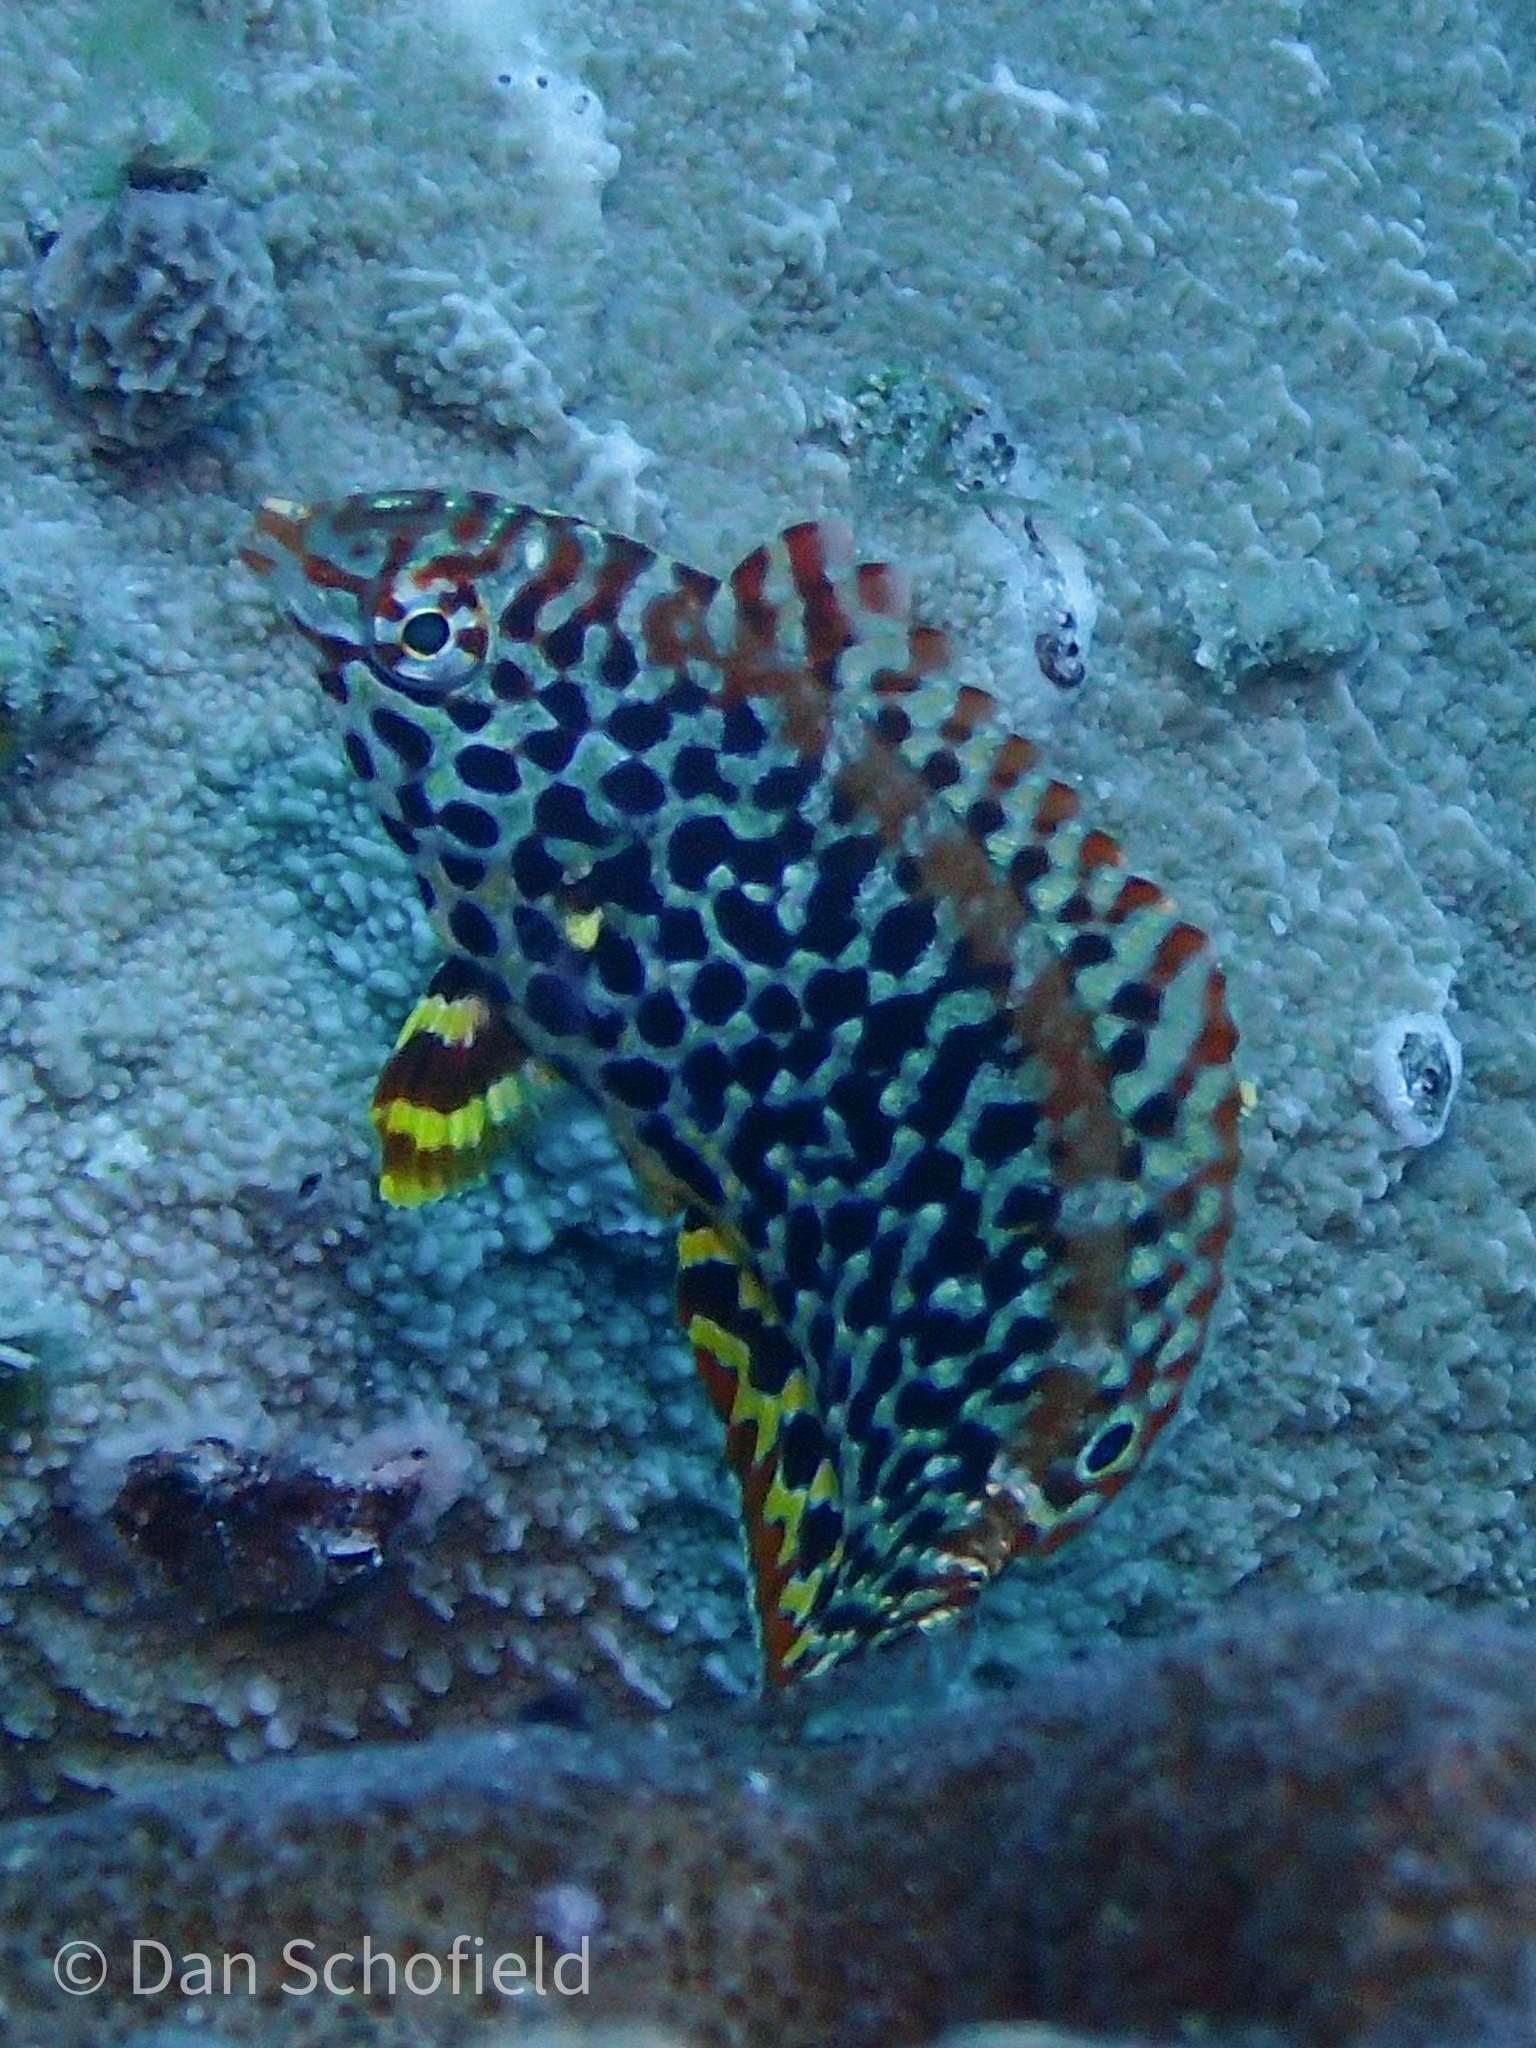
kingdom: Animalia
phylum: Chordata
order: Perciformes
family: Labridae
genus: Macropharyngodon
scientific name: Macropharyngodon meleagris
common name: Leopard wrasse
